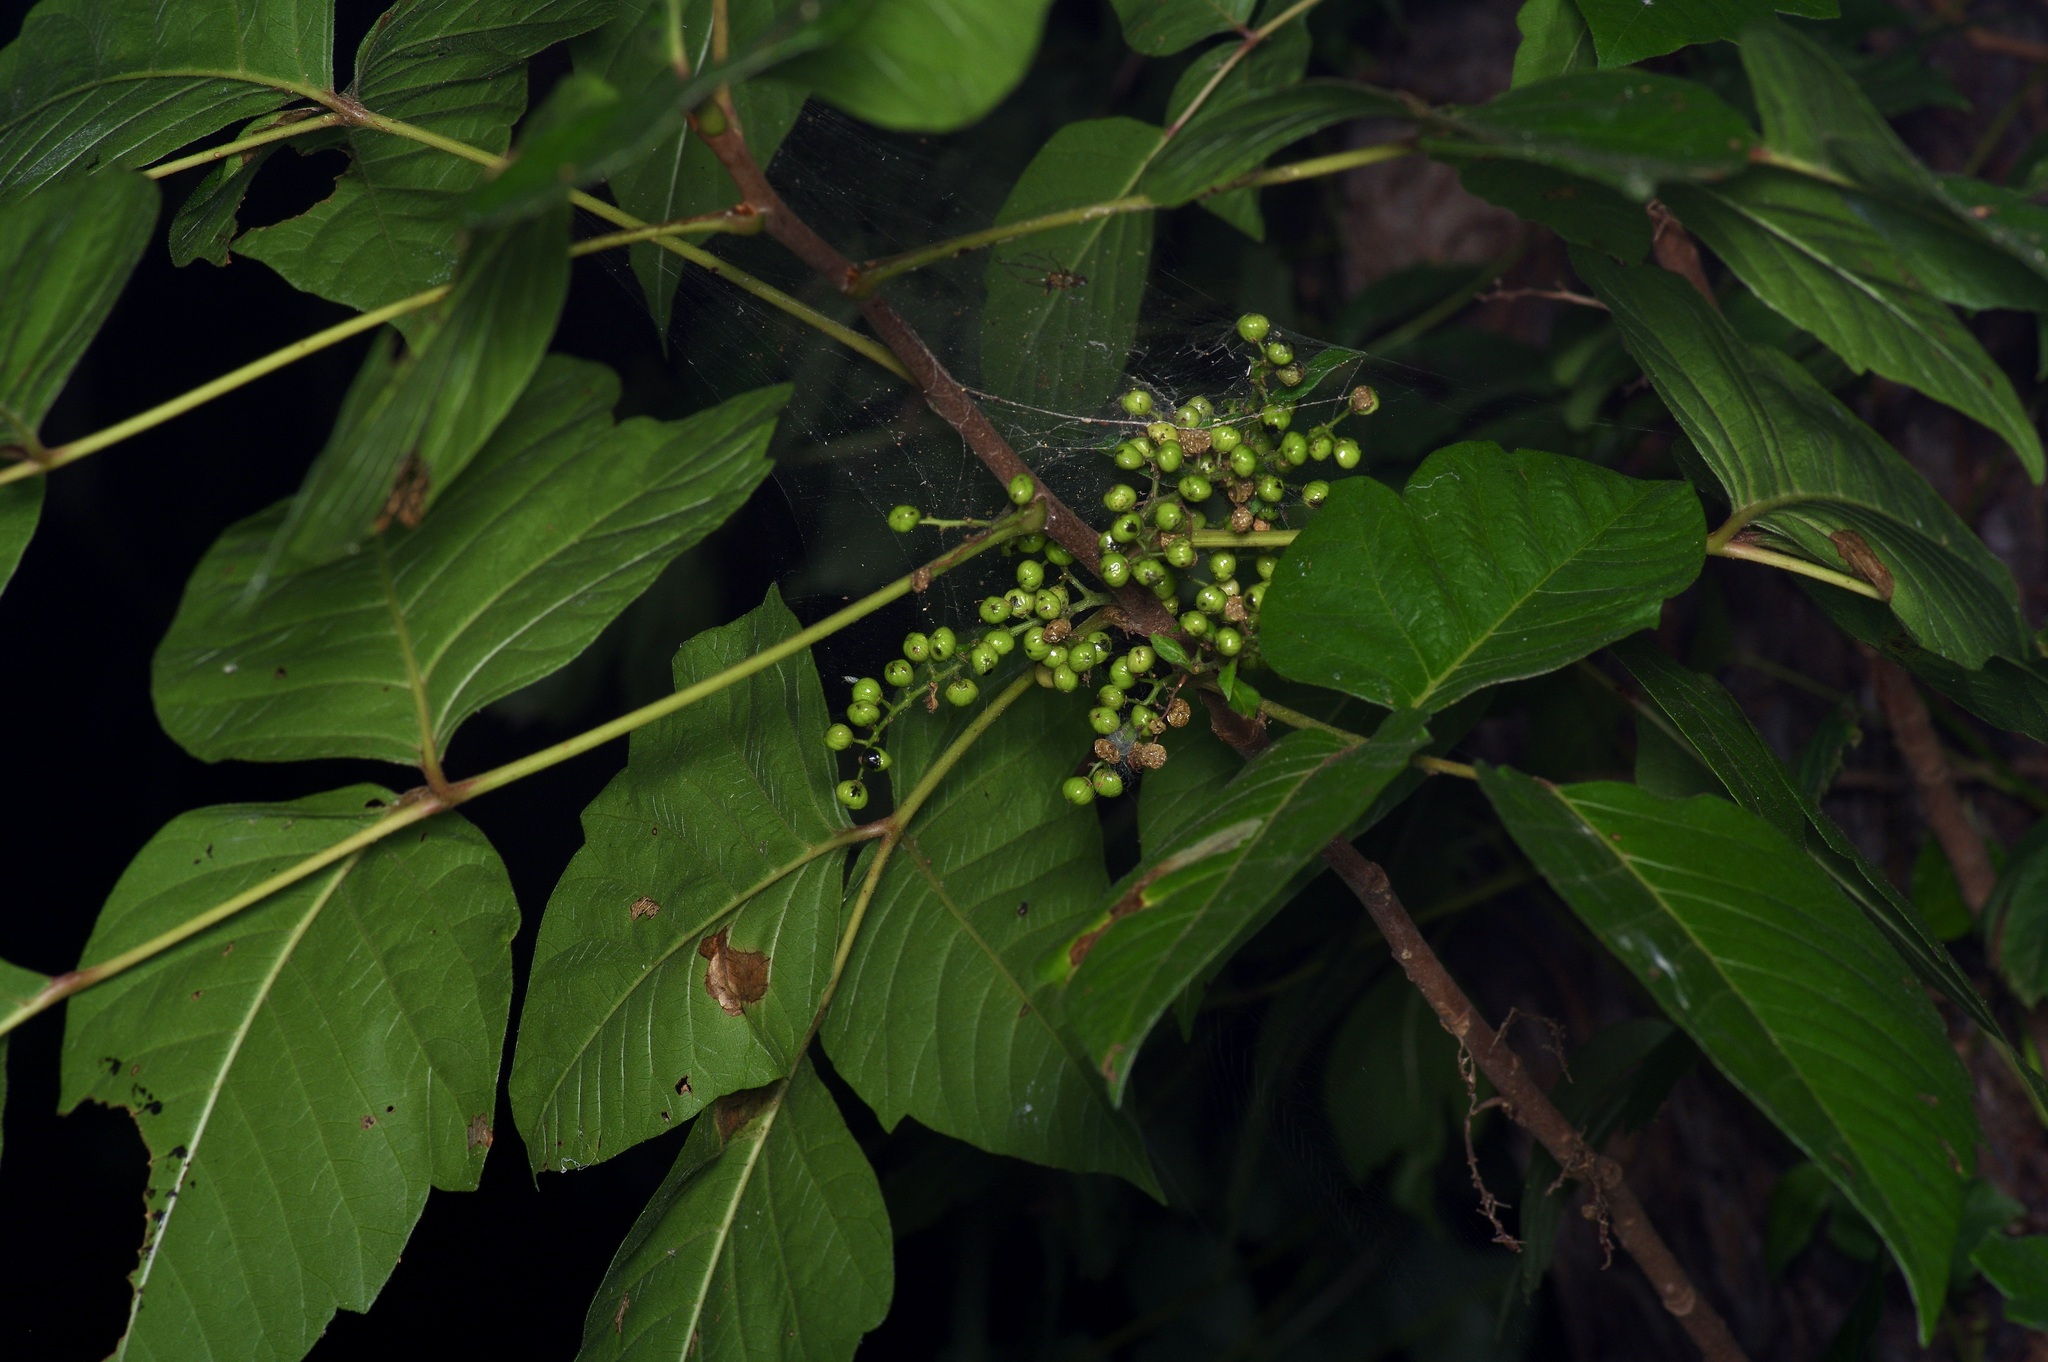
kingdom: Plantae
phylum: Tracheophyta
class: Magnoliopsida
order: Sapindales
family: Anacardiaceae
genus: Toxicodendron
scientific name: Toxicodendron radicans
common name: Poison ivy
